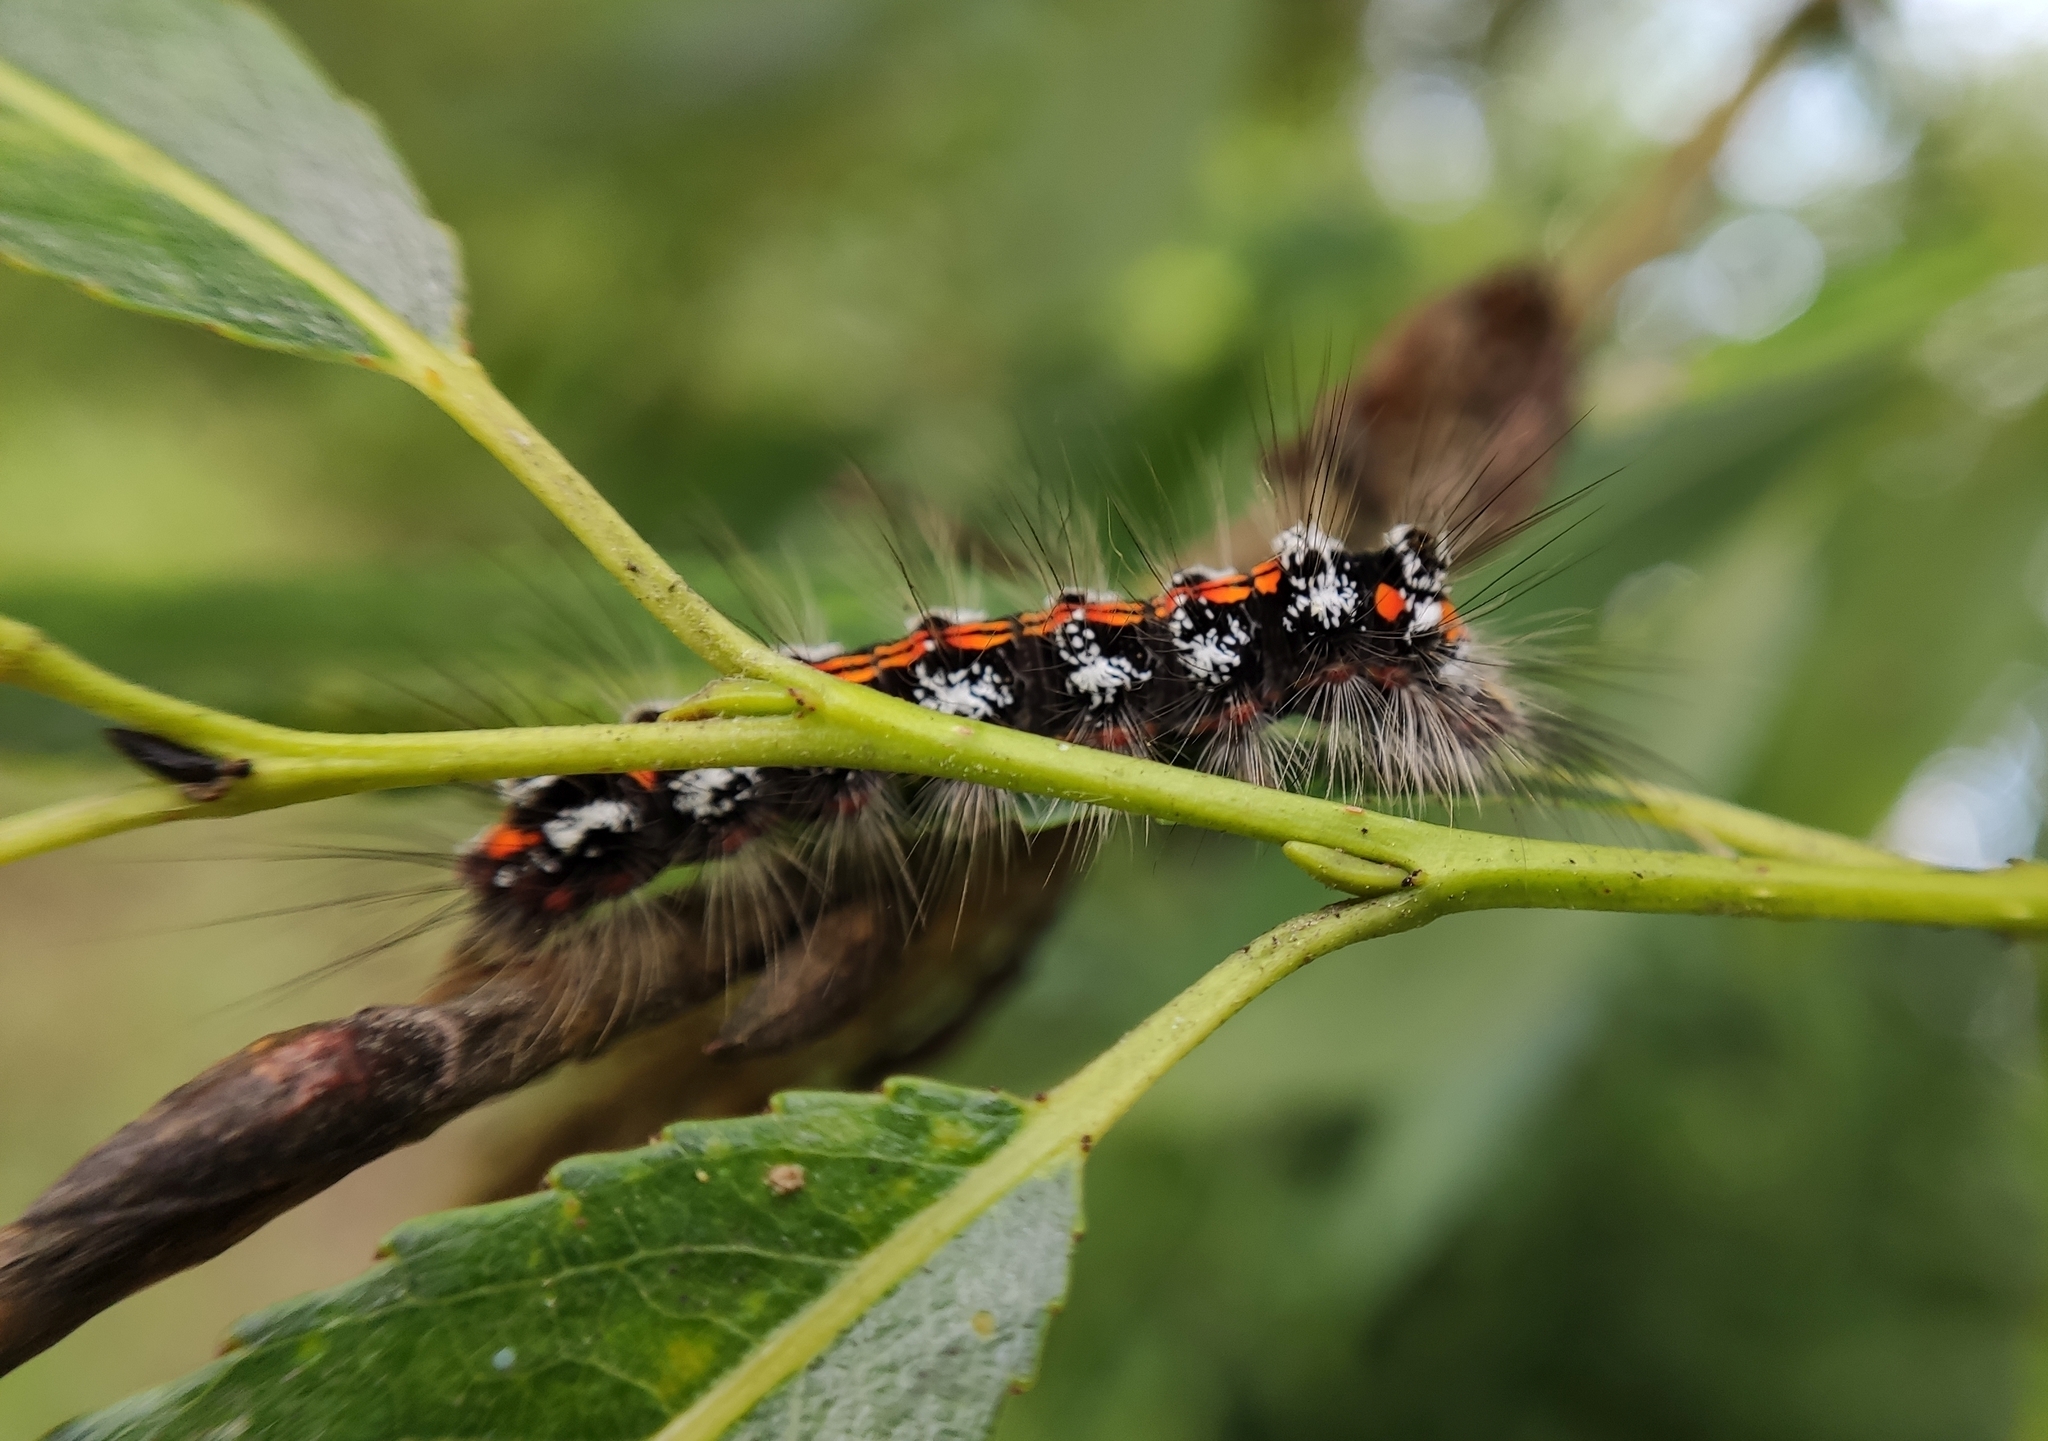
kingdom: Animalia
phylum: Arthropoda
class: Insecta
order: Lepidoptera
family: Erebidae
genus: Sphrageidus
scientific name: Sphrageidus similis
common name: Yellow-tail
